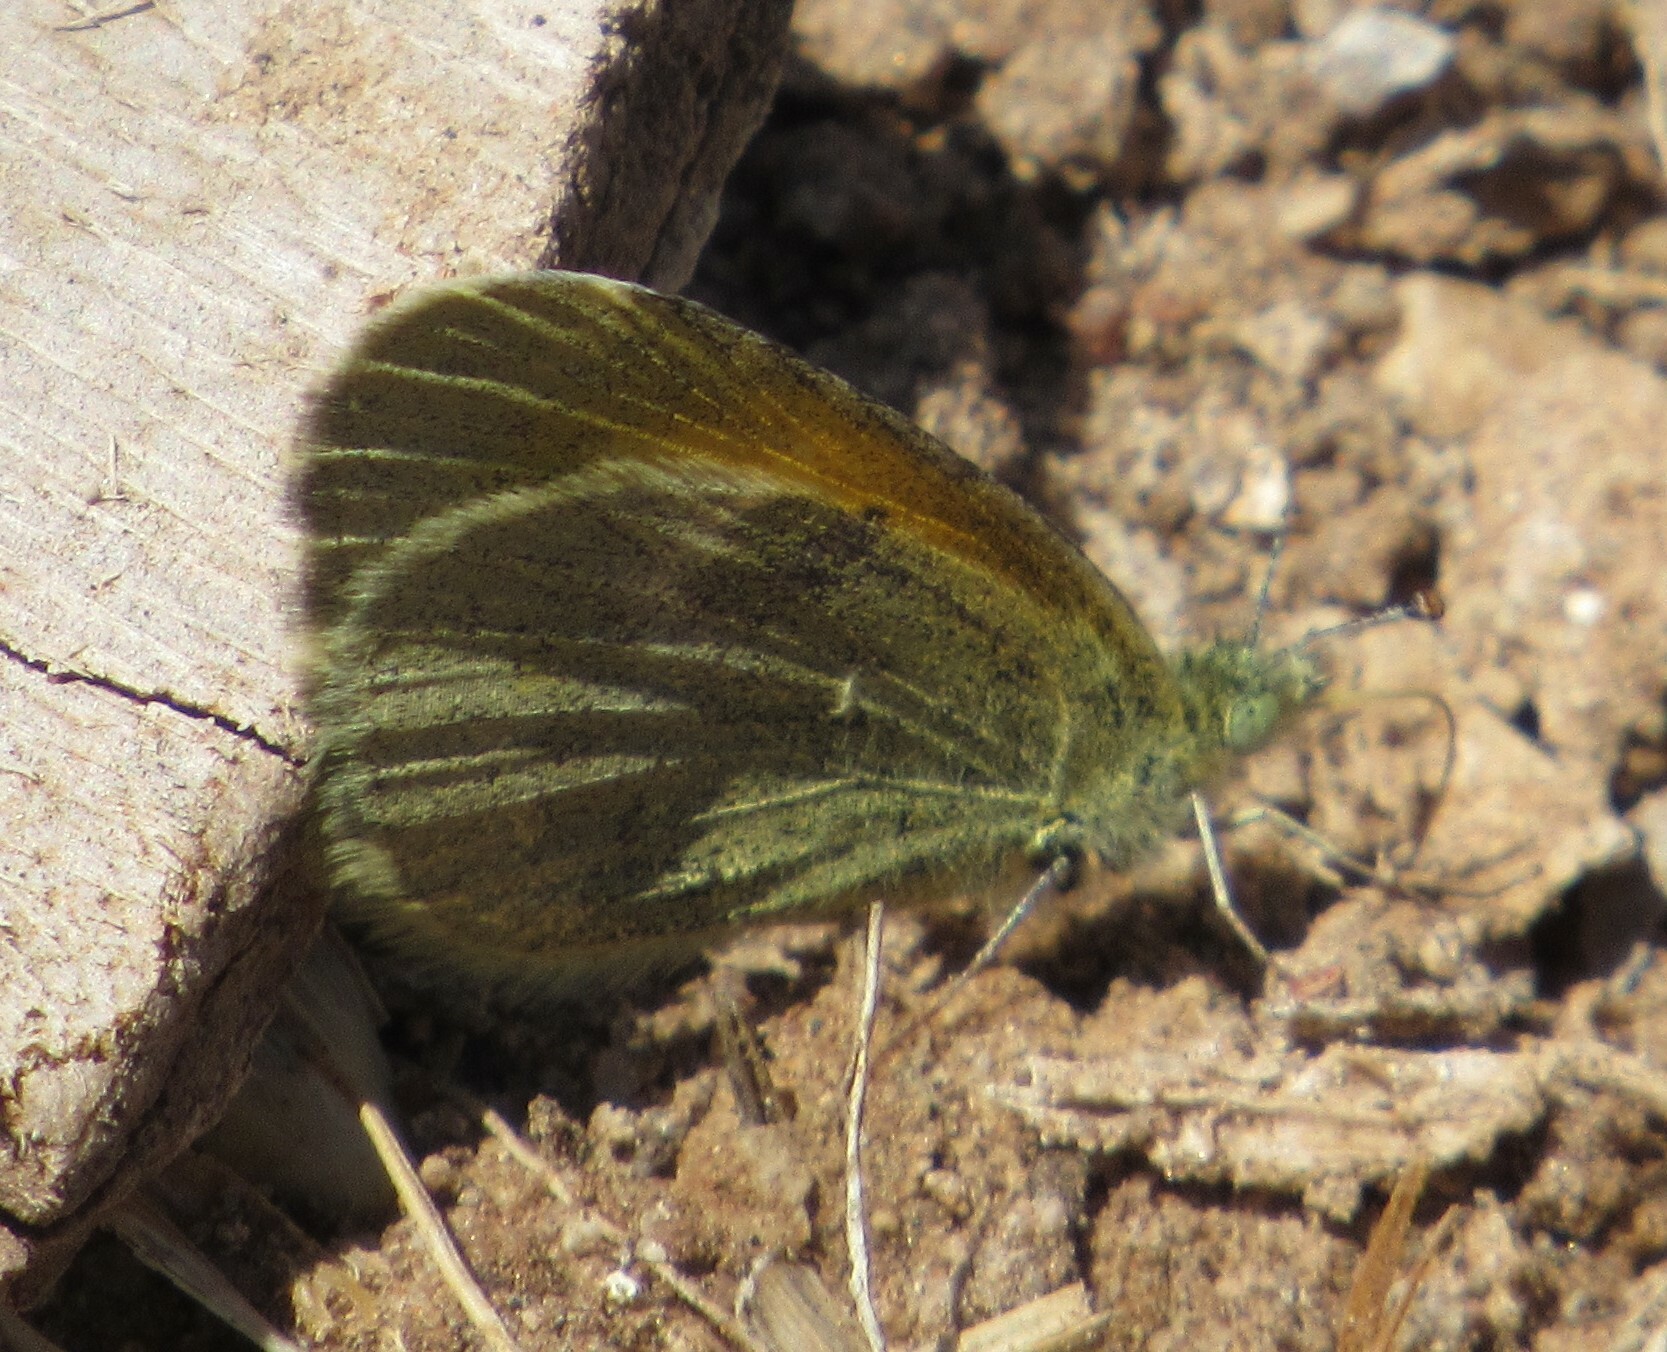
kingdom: Animalia
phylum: Arthropoda
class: Insecta
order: Lepidoptera
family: Pieridae
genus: Nathalis
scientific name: Nathalis iole
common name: Dainty sulphur
